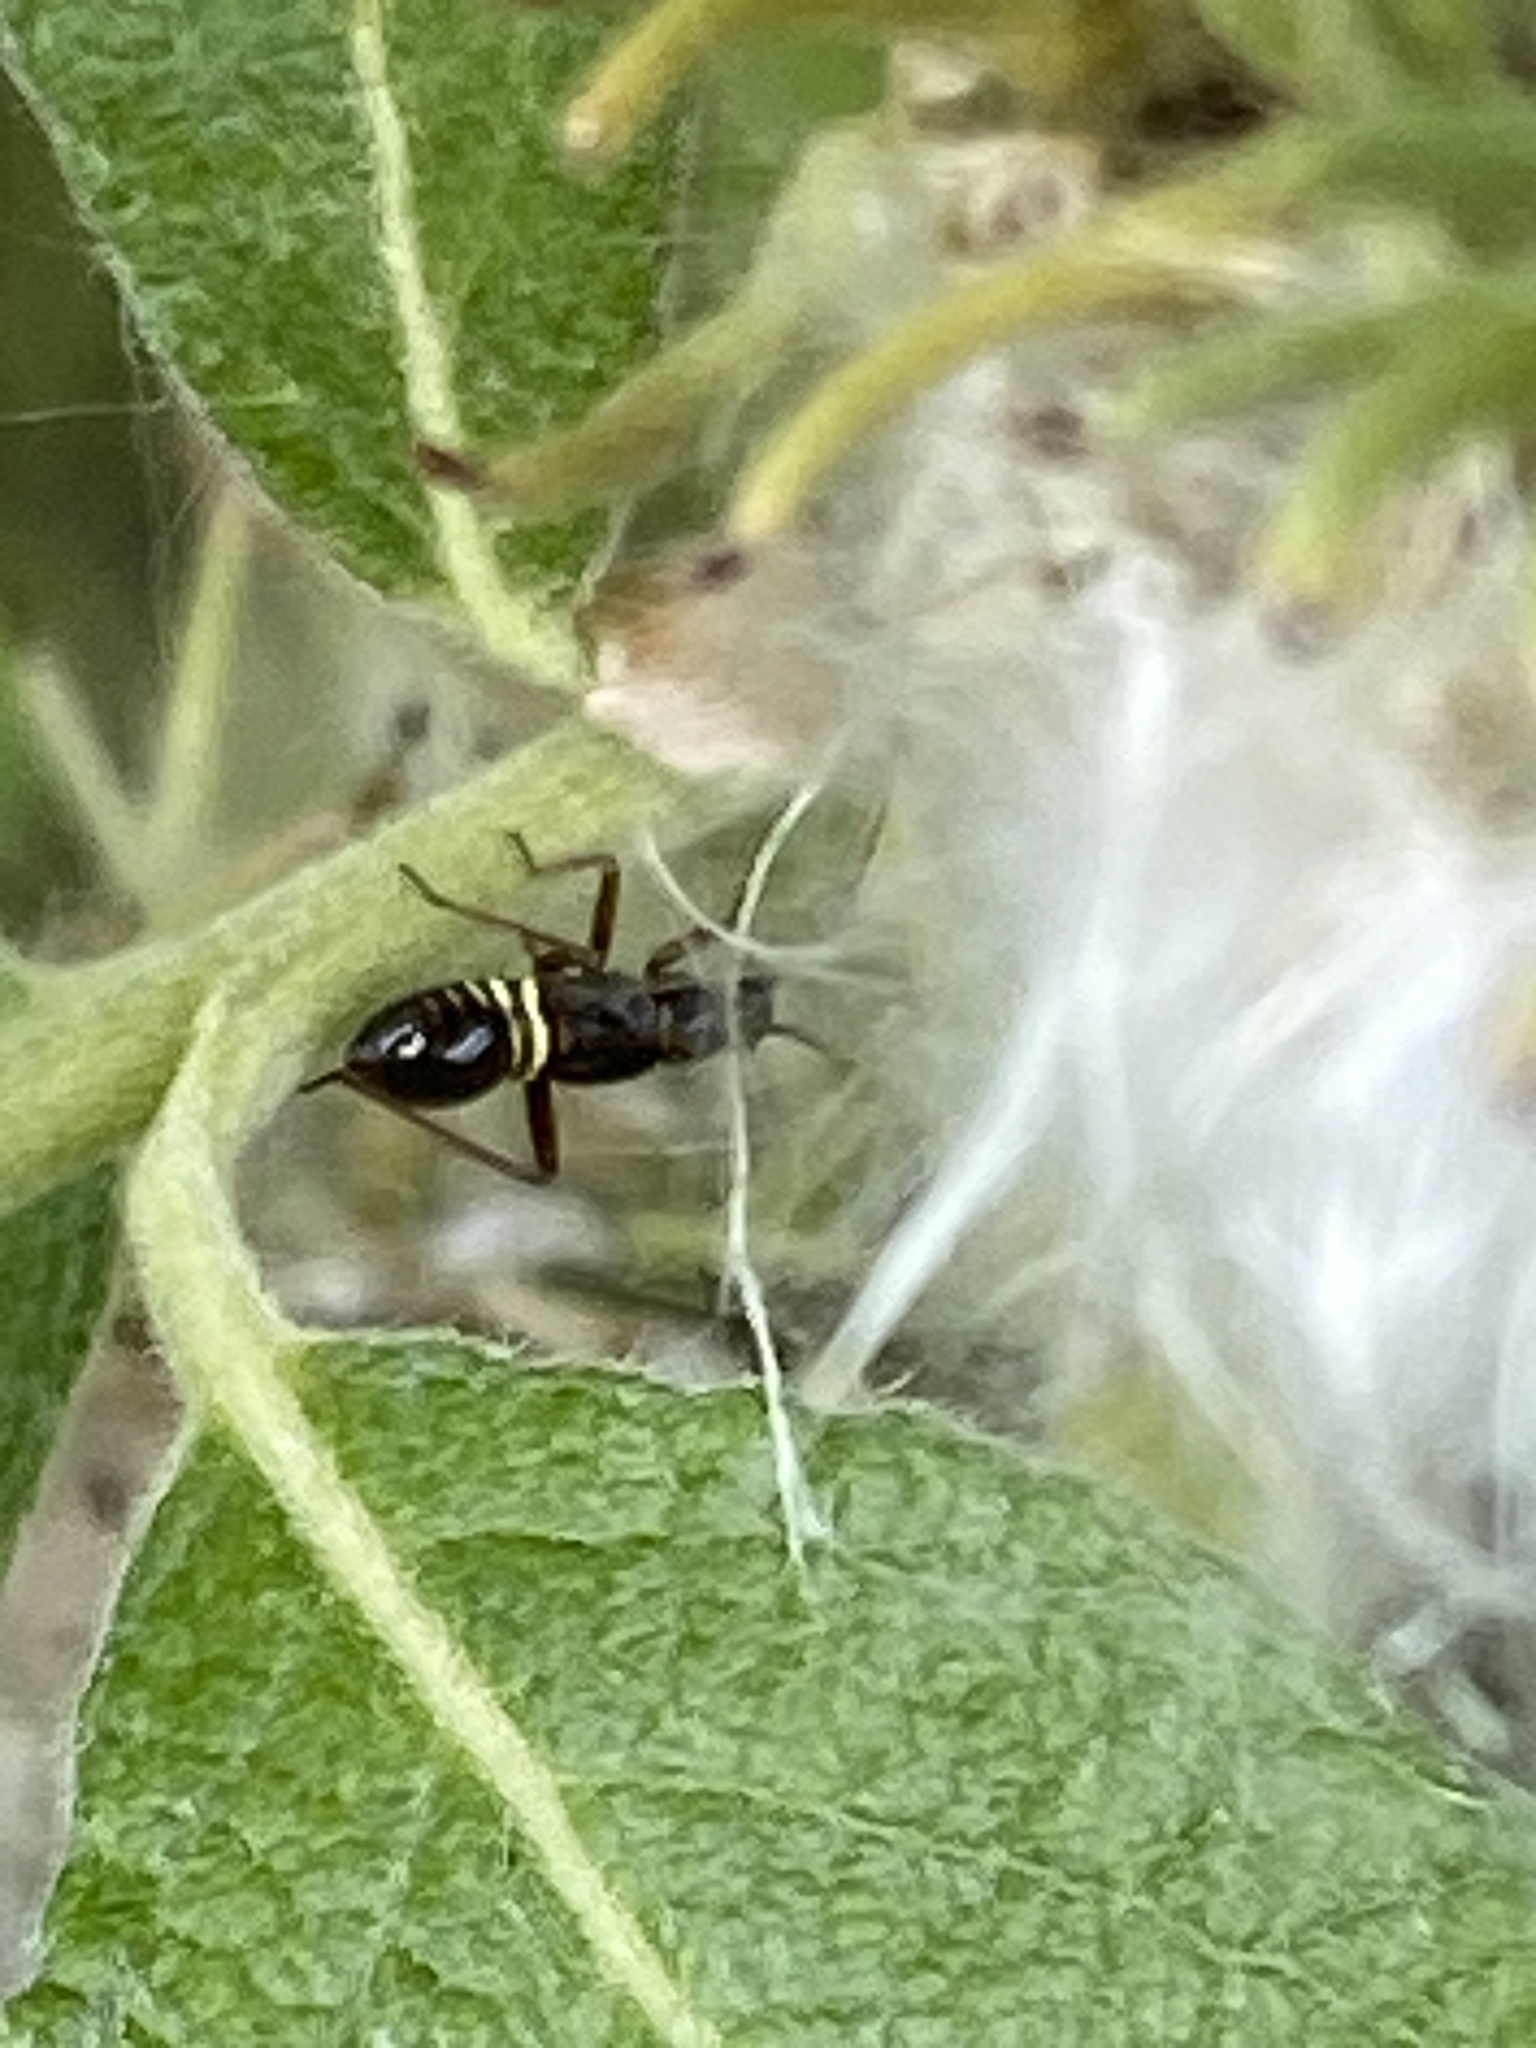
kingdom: Animalia
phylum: Arthropoda
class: Insecta
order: Hemiptera
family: Miridae
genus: Miris
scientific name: Miris striatus
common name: Fine streaked bugkin
